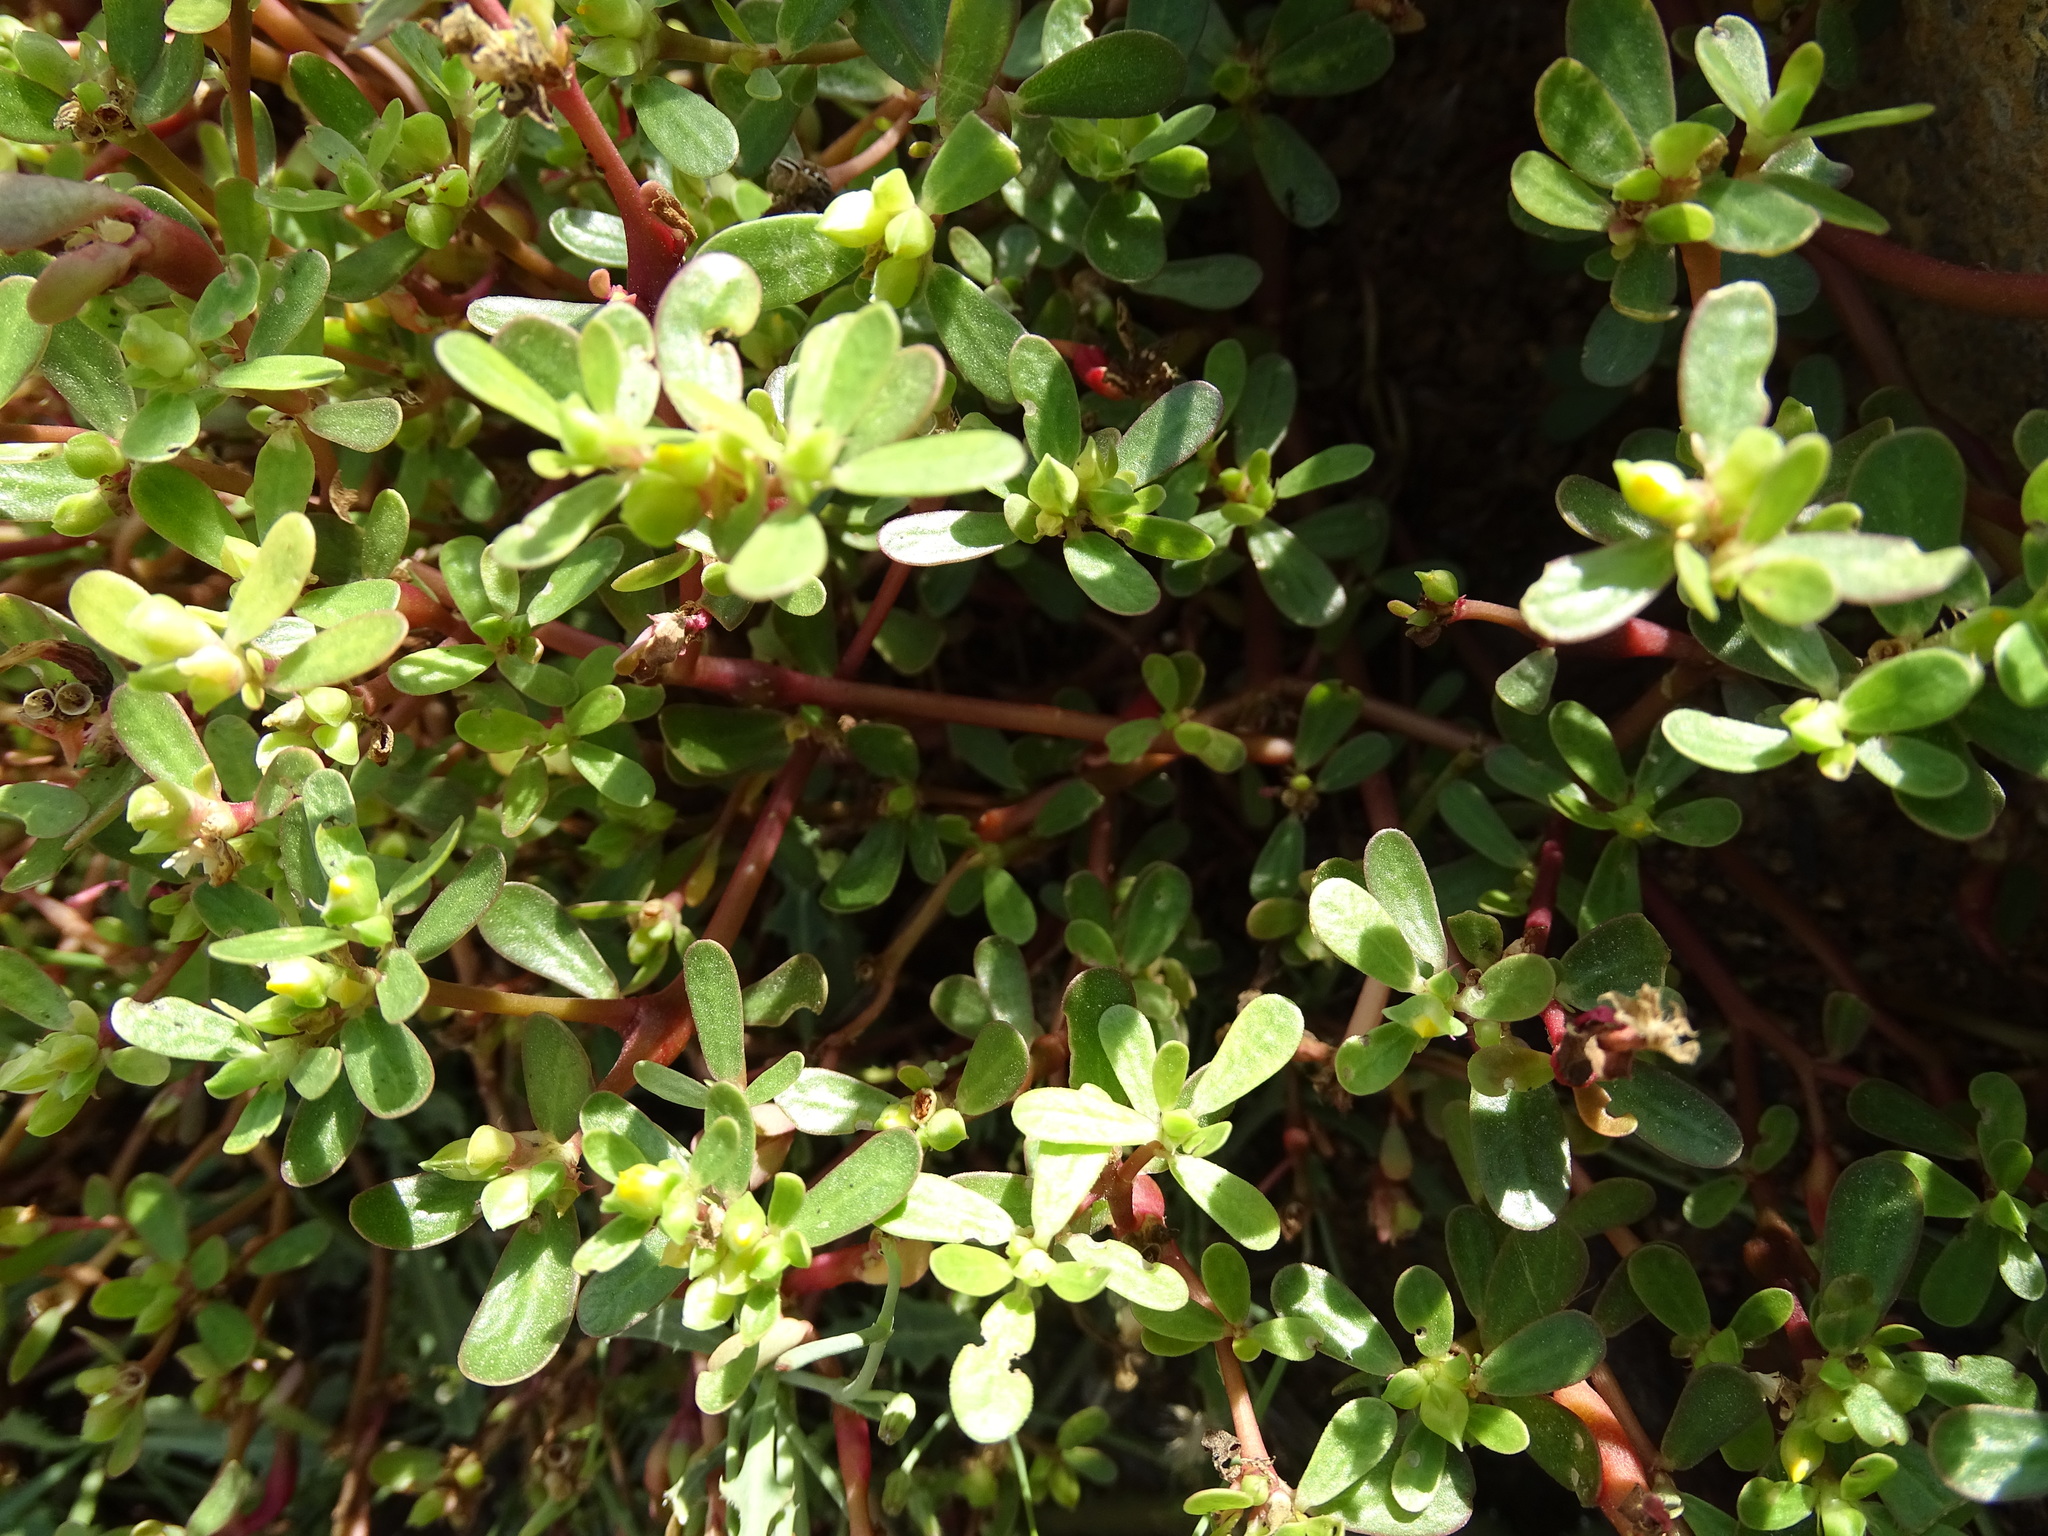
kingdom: Plantae
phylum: Tracheophyta
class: Magnoliopsida
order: Caryophyllales
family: Portulacaceae
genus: Portulaca
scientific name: Portulaca oleracea
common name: Common purslane
